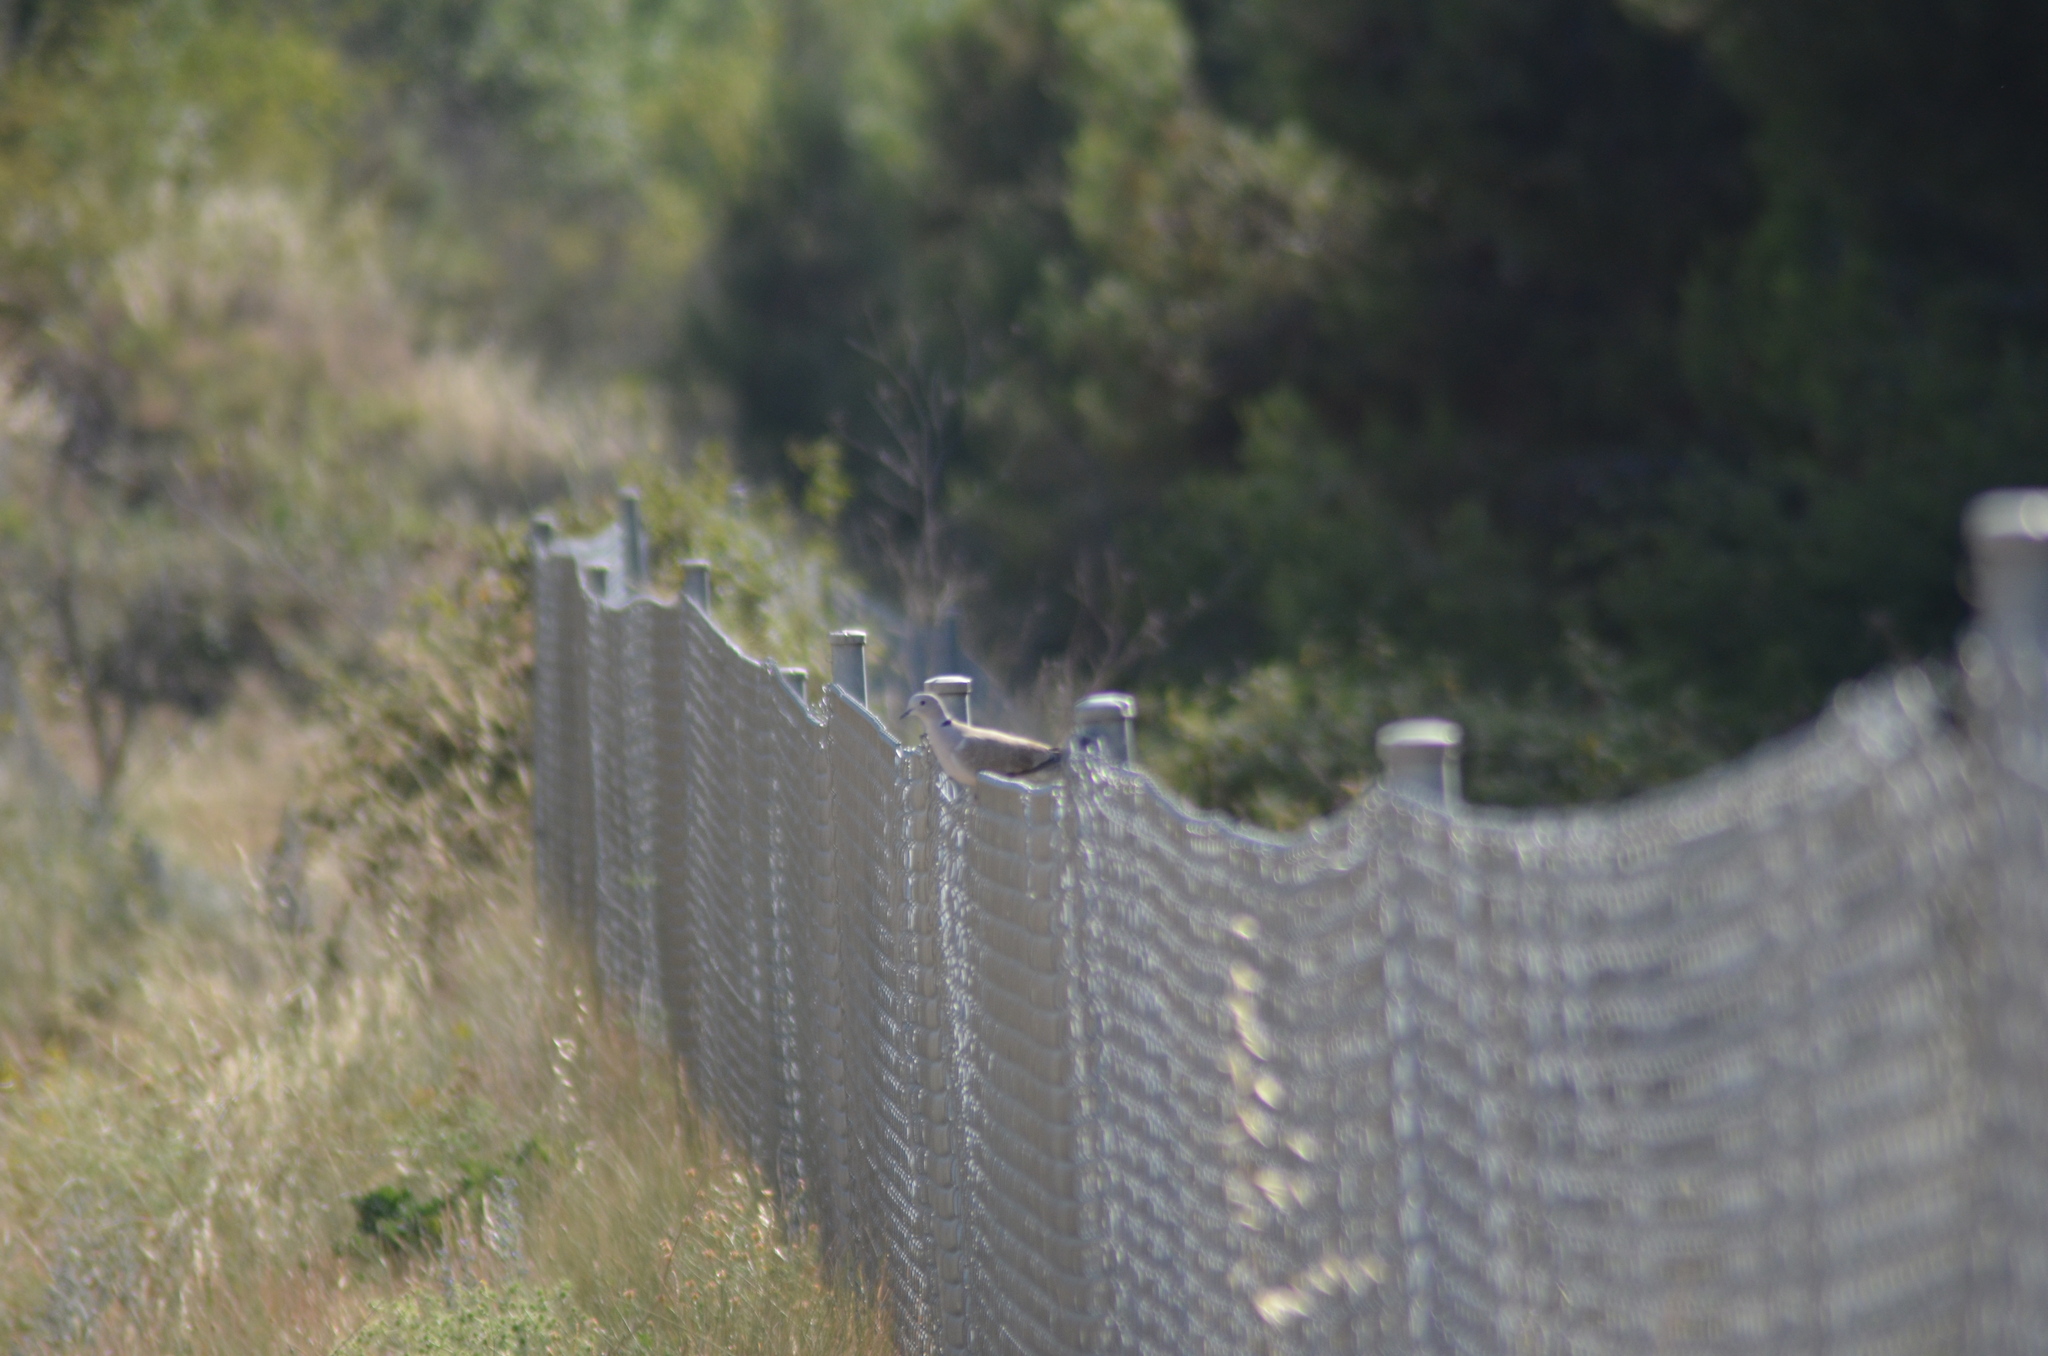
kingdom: Animalia
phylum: Chordata
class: Aves
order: Columbiformes
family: Columbidae
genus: Streptopelia
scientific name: Streptopelia decaocto
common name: Eurasian collared dove
